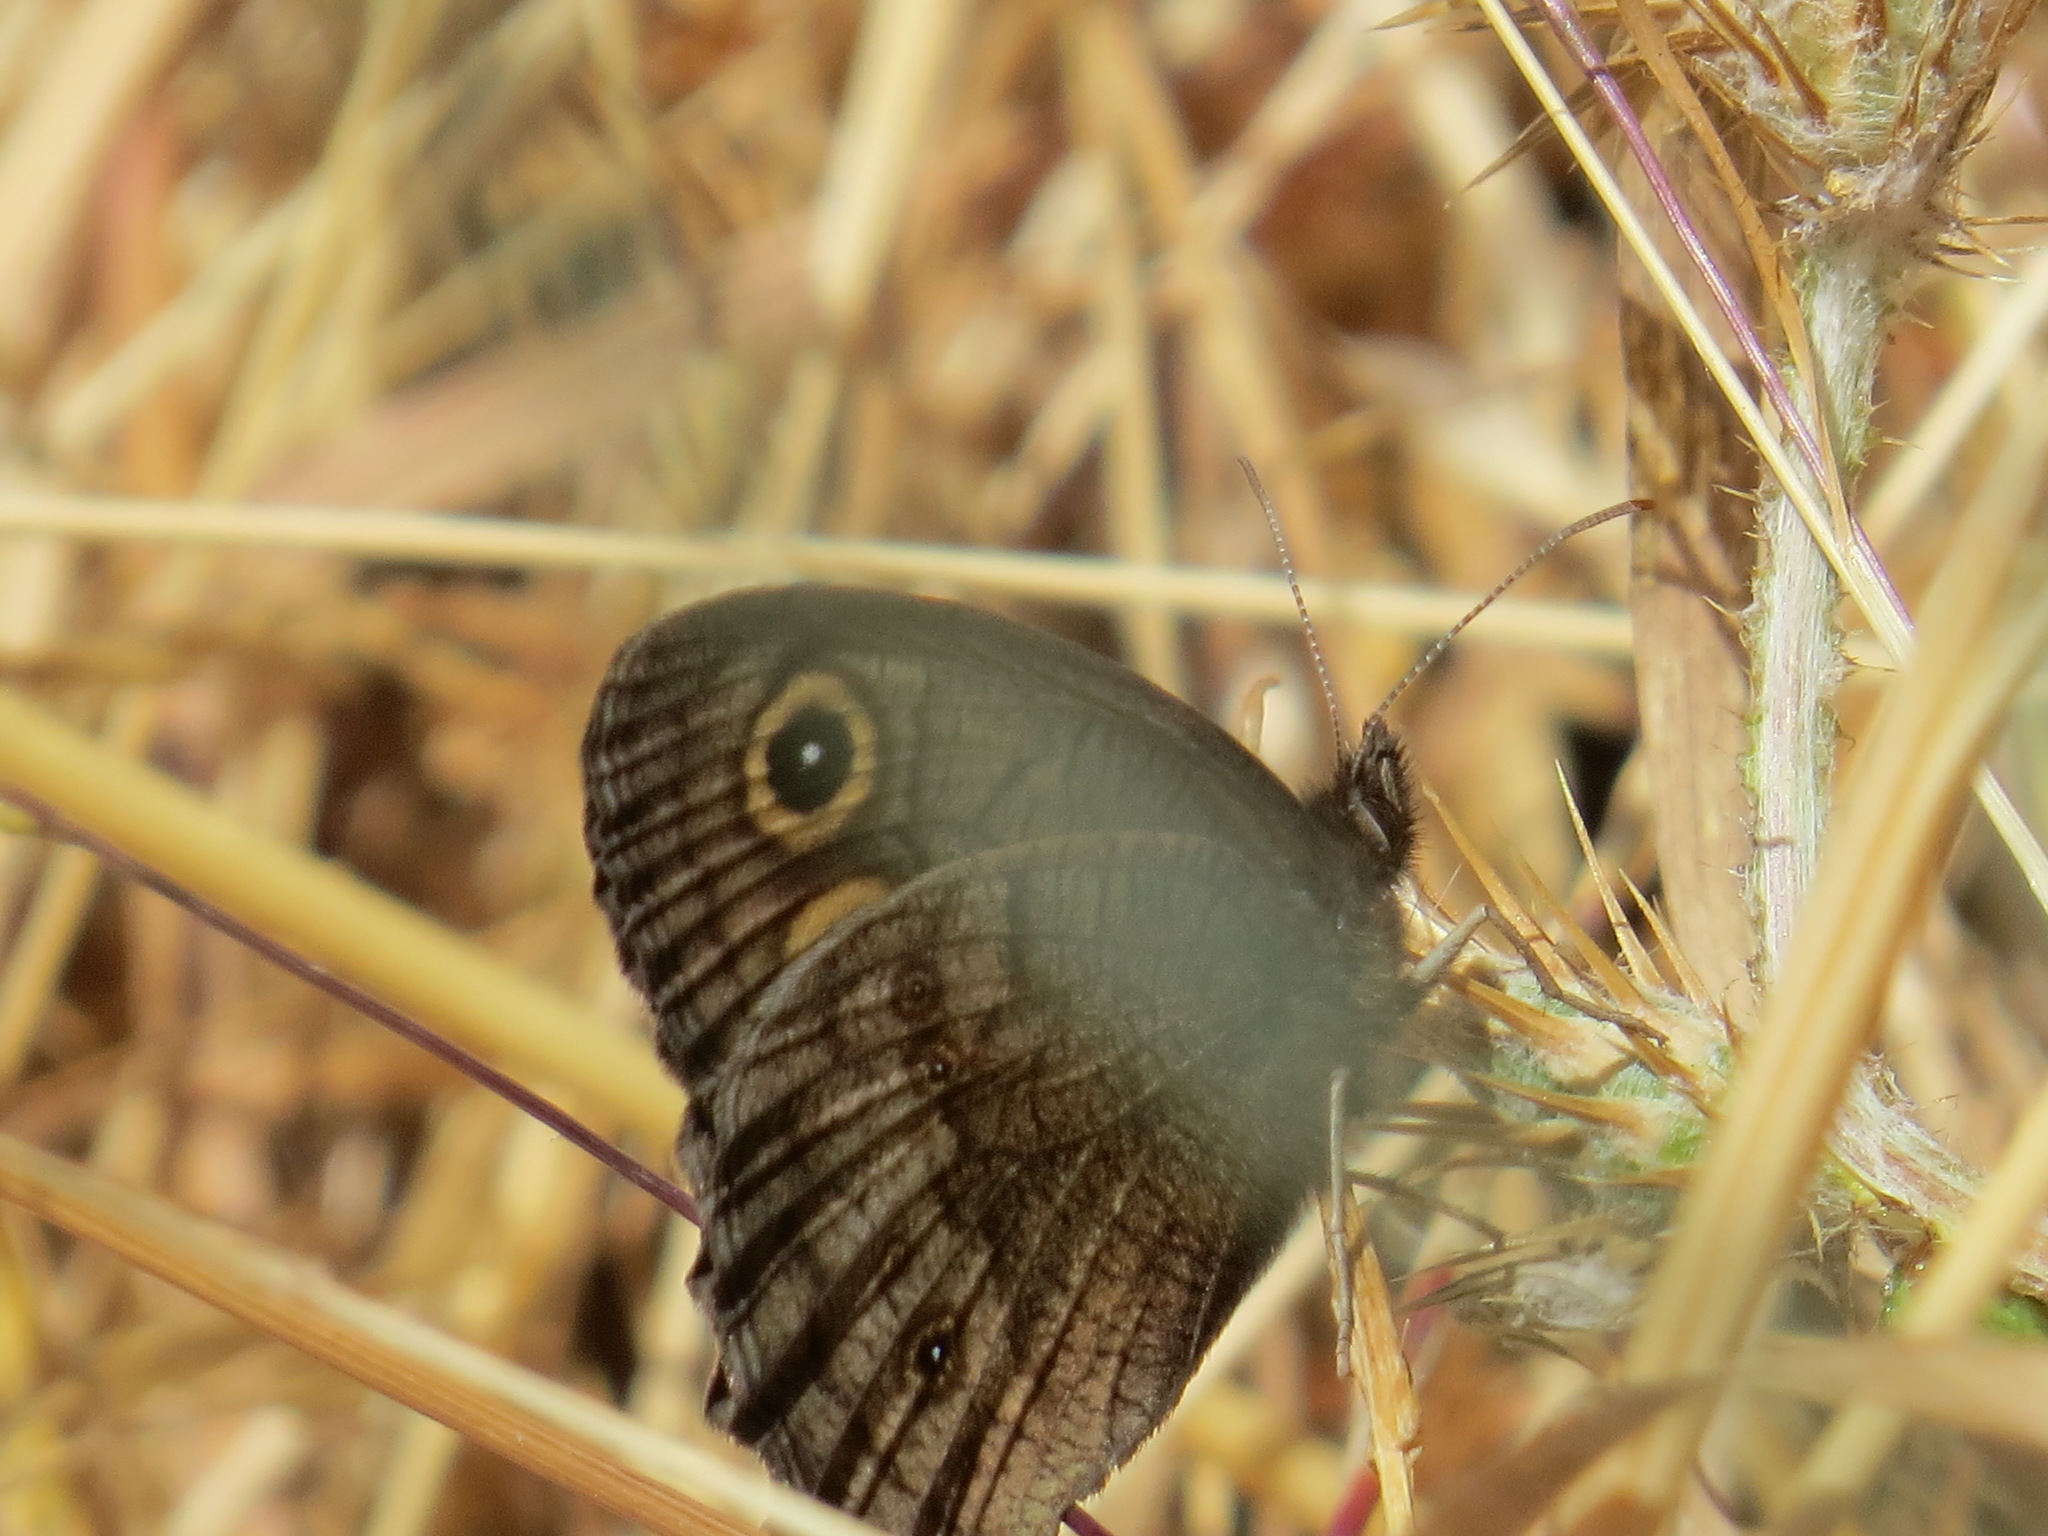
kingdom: Animalia
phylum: Arthropoda
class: Insecta
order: Lepidoptera
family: Nymphalidae
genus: Cercyonis
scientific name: Cercyonis pegala
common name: Common wood-nymph
